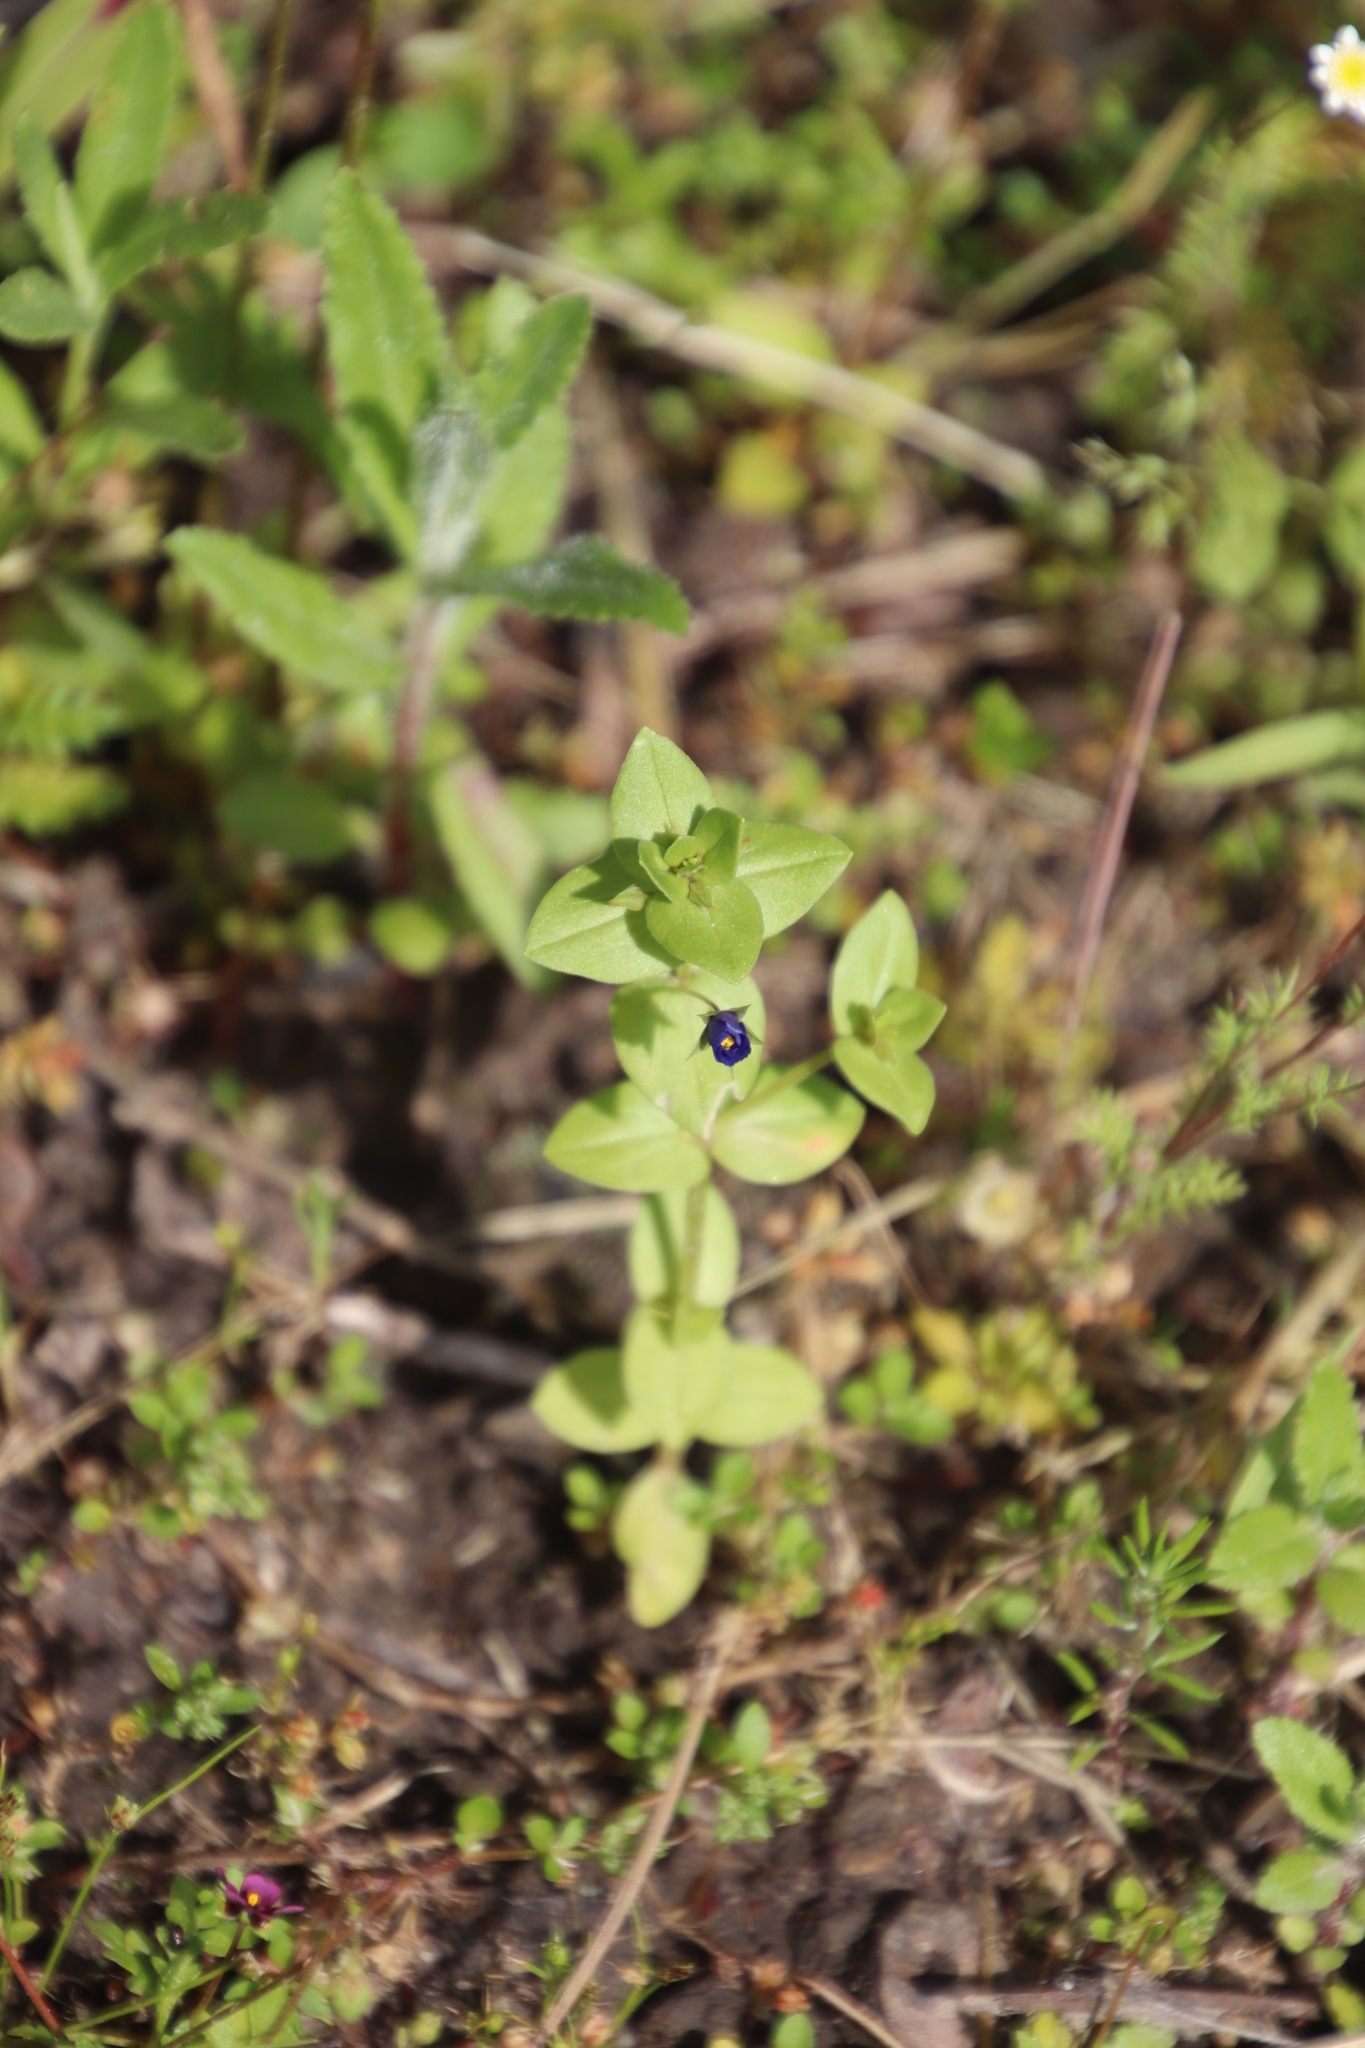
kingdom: Plantae
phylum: Tracheophyta
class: Magnoliopsida
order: Ericales
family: Primulaceae
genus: Lysimachia
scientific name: Lysimachia loeflingii
